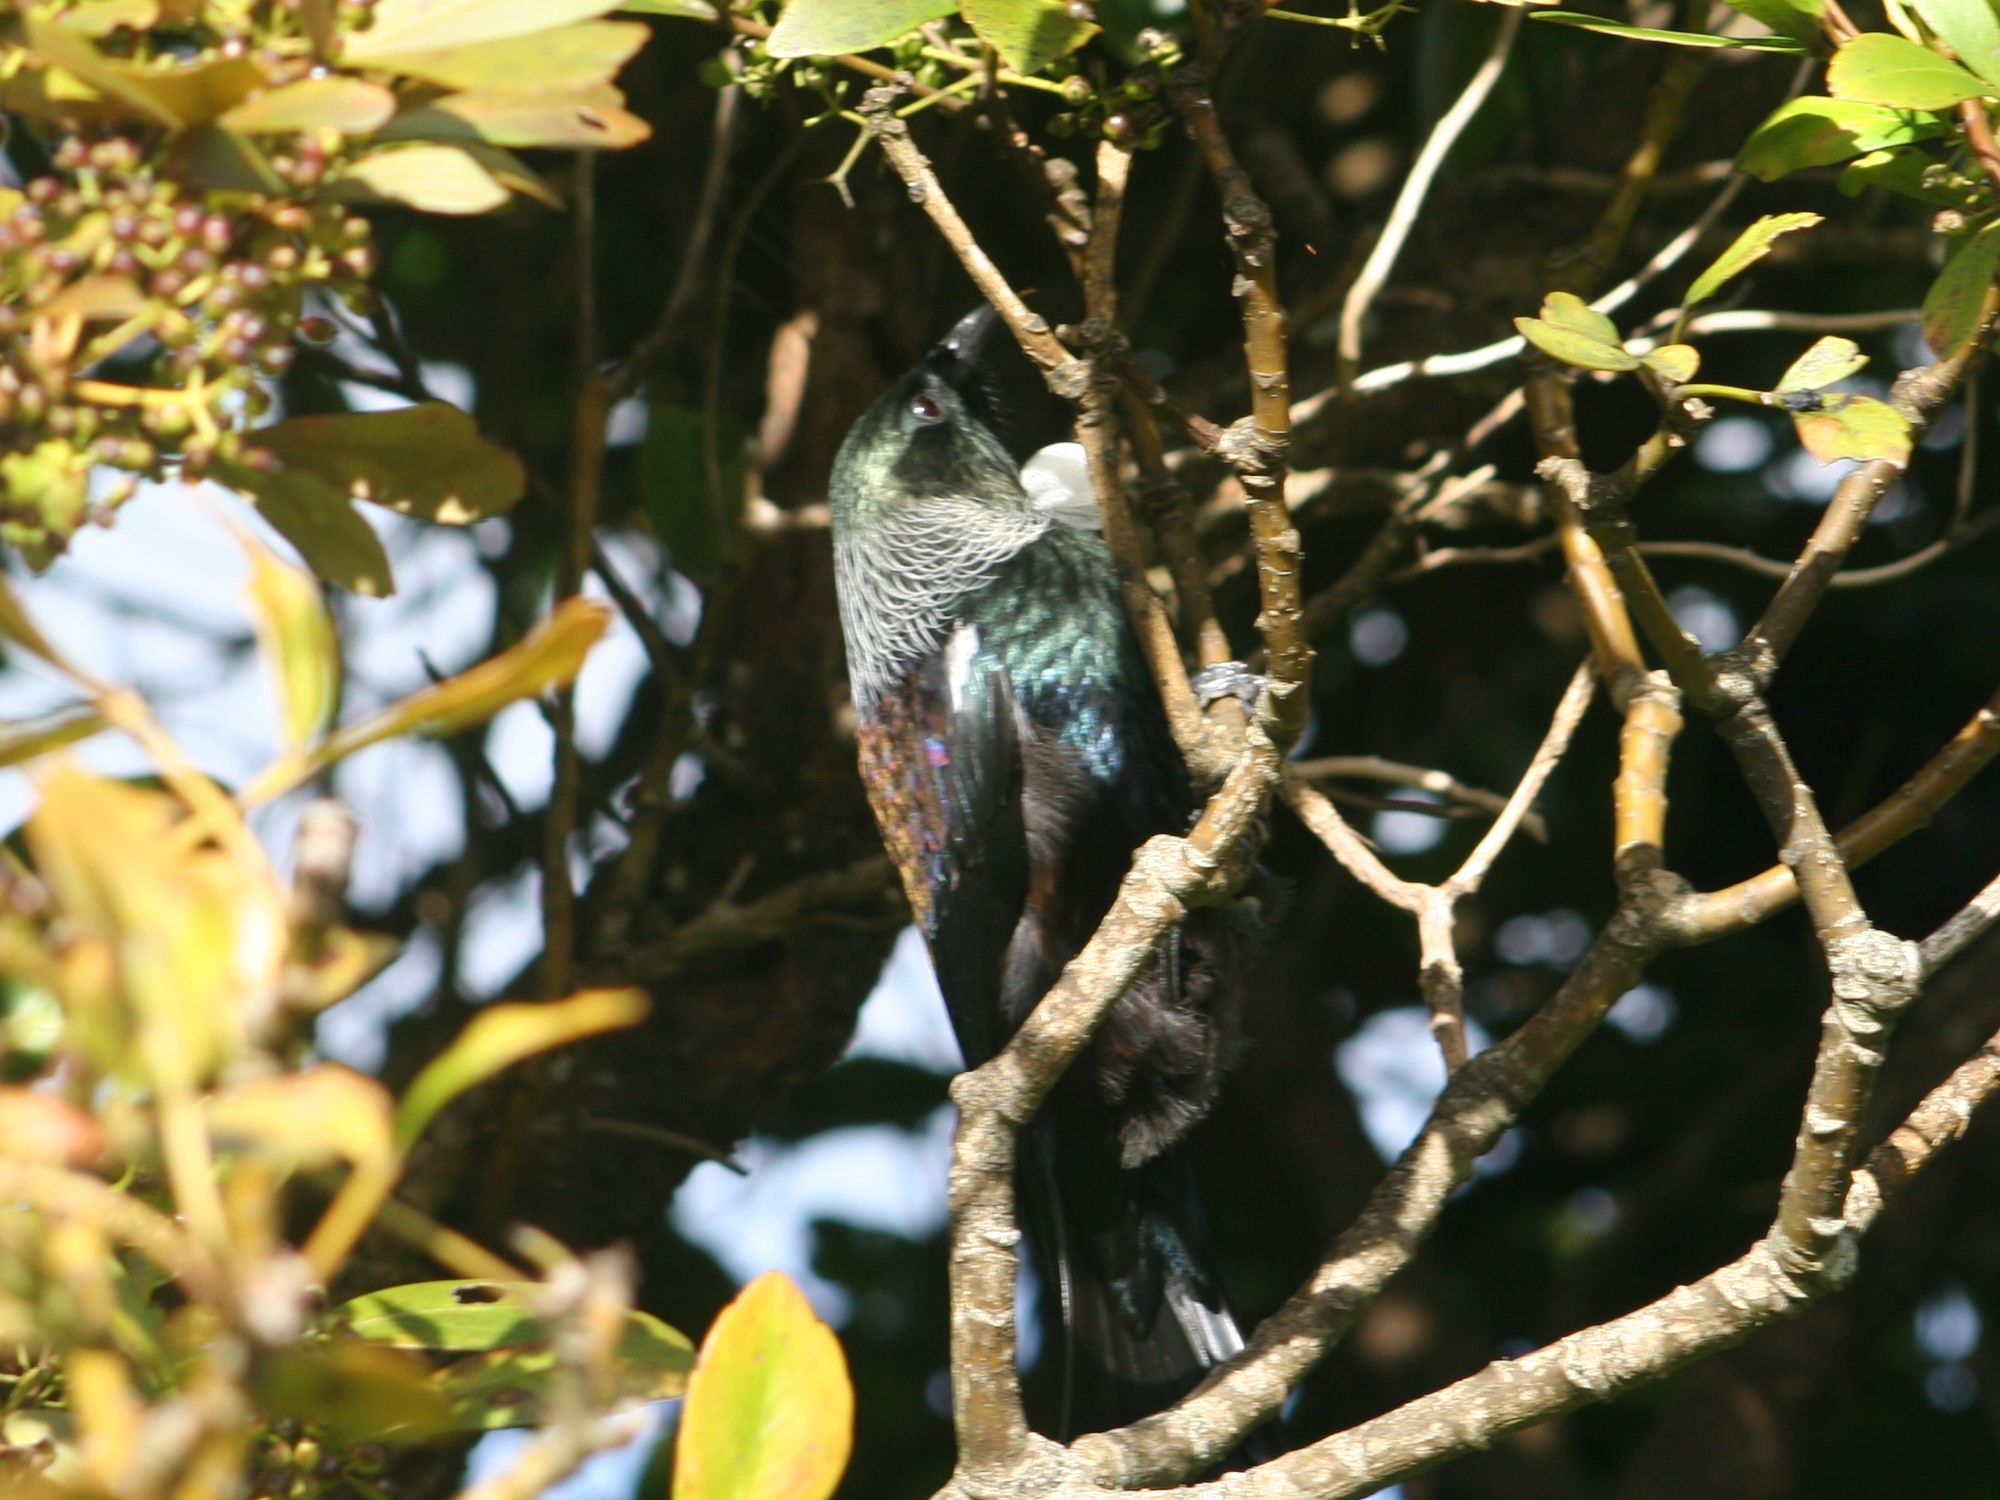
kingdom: Animalia
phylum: Chordata
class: Aves
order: Passeriformes
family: Meliphagidae
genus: Prosthemadera
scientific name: Prosthemadera novaeseelandiae
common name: Tui
